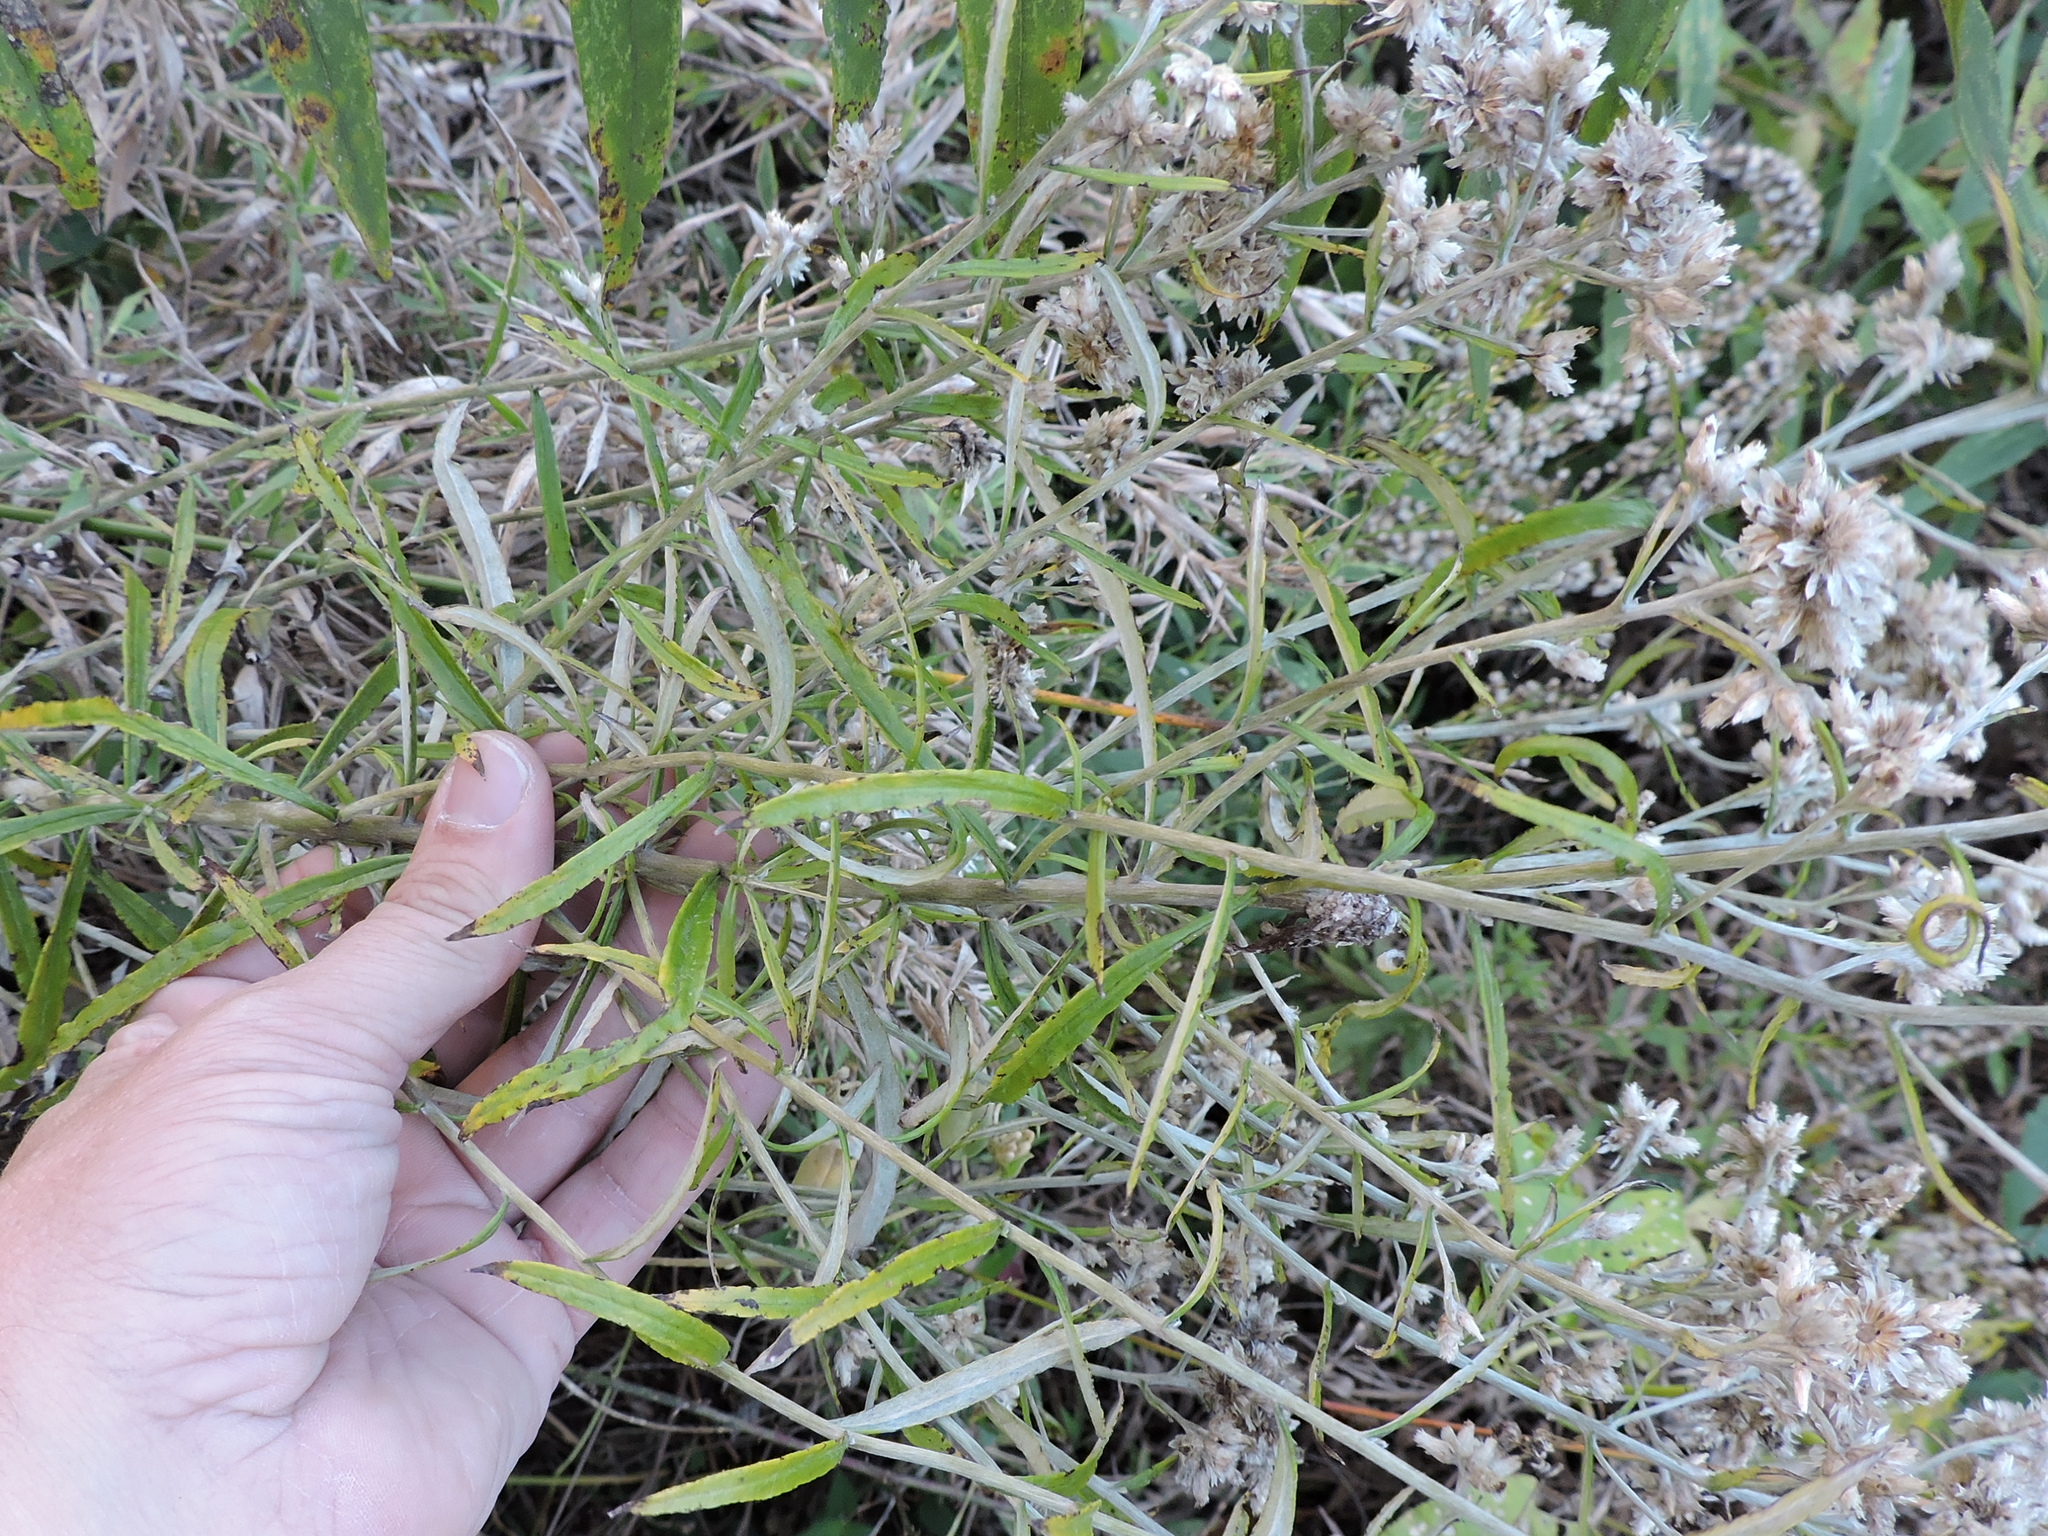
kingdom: Plantae
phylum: Tracheophyta
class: Magnoliopsida
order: Asterales
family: Asteraceae
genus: Pseudognaphalium
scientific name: Pseudognaphalium obtusifolium
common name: Eastern rabbit-tobacco
